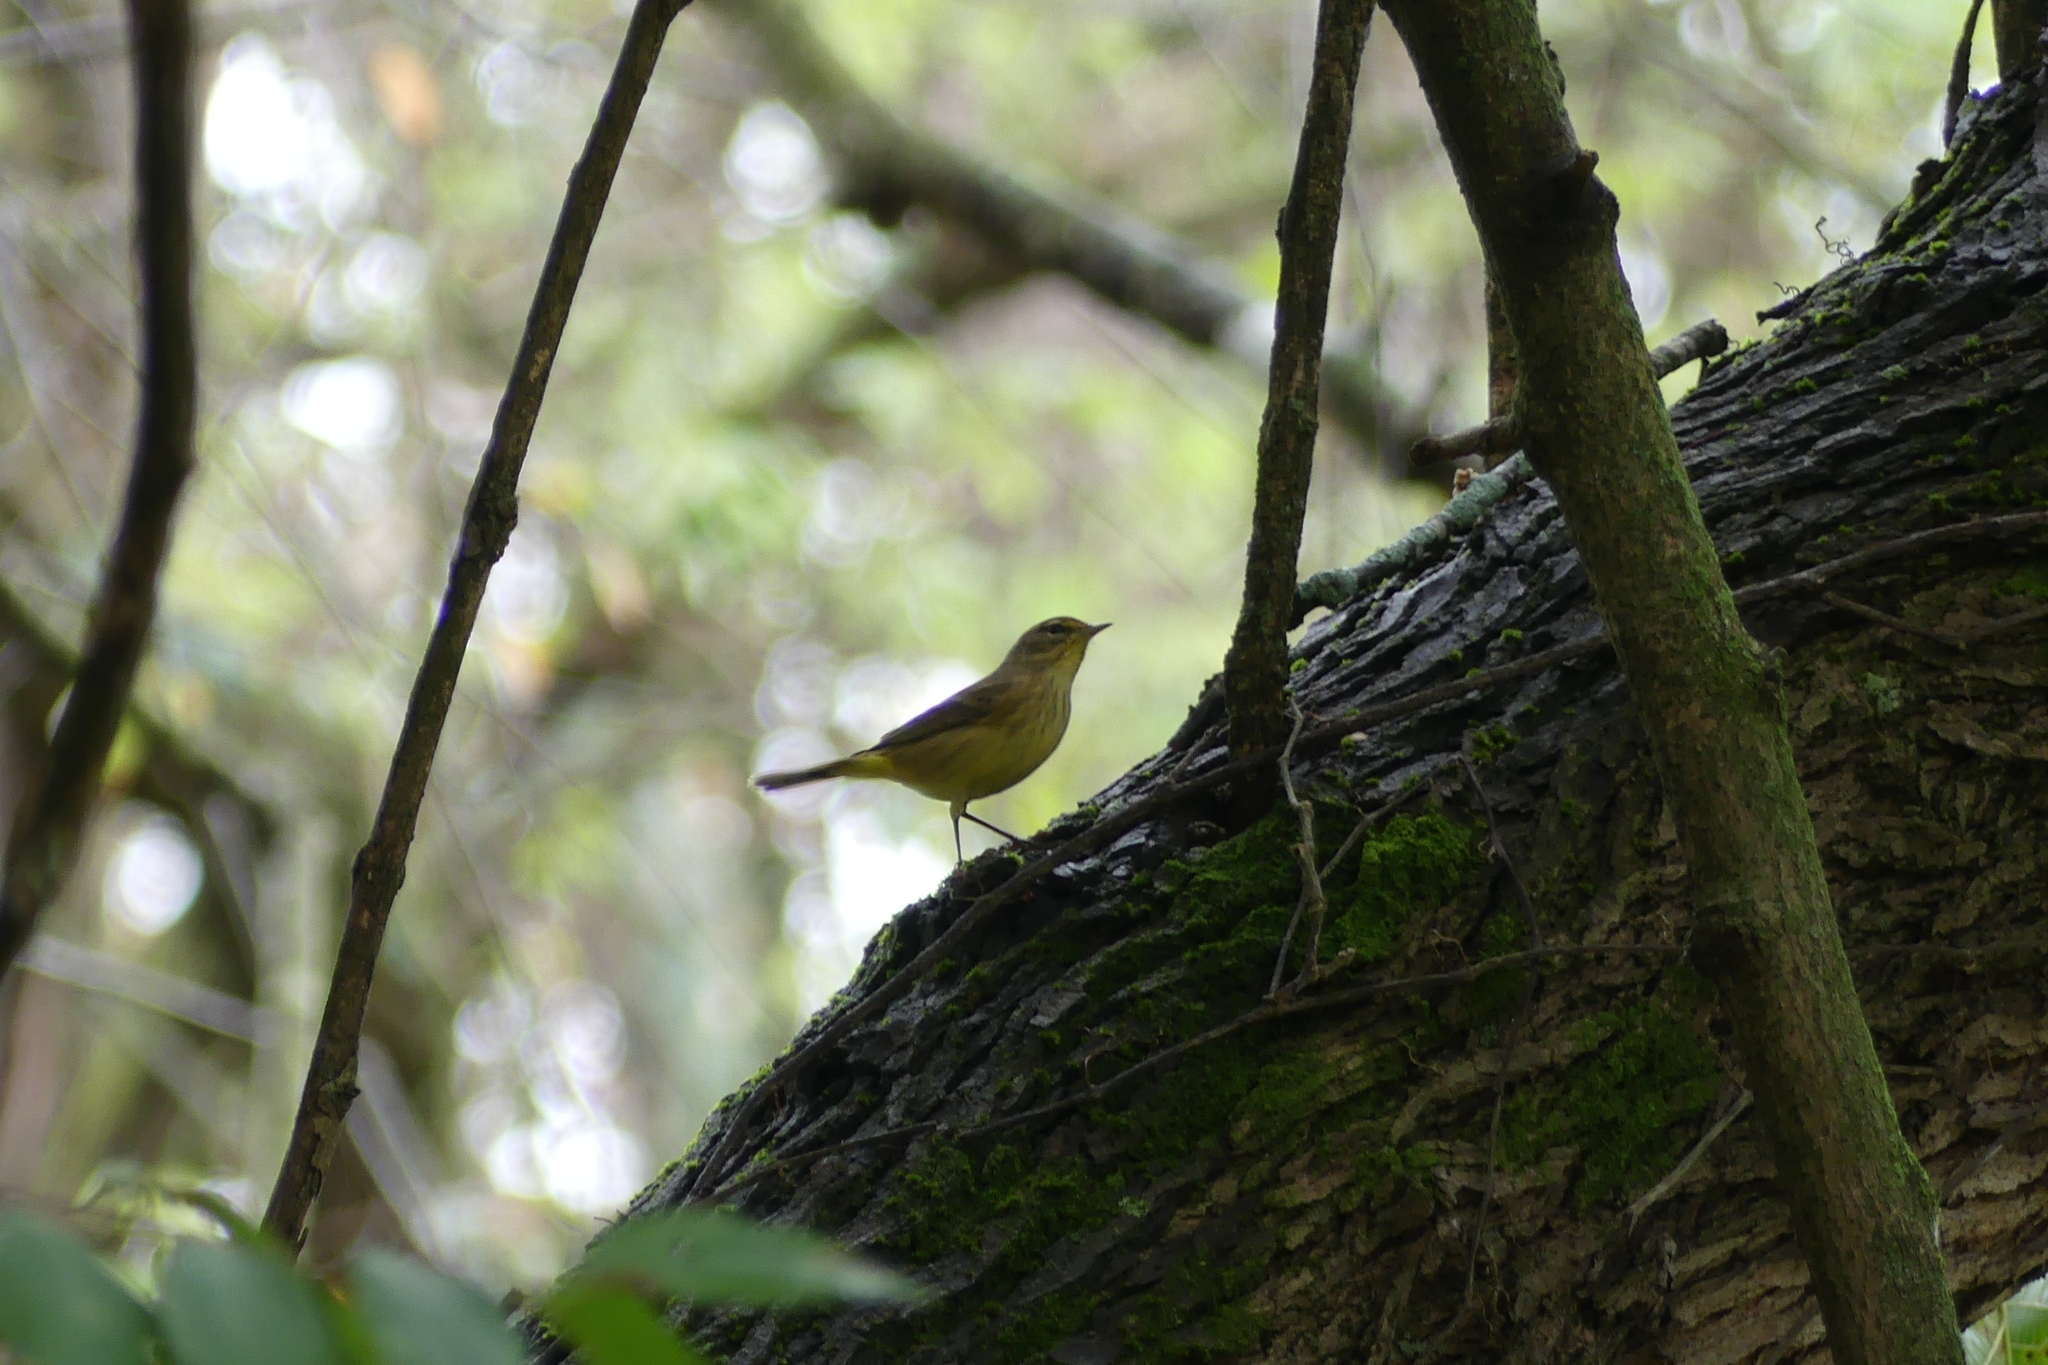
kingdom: Animalia
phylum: Chordata
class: Aves
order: Passeriformes
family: Parulidae
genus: Setophaga
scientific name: Setophaga palmarum
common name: Palm warbler
